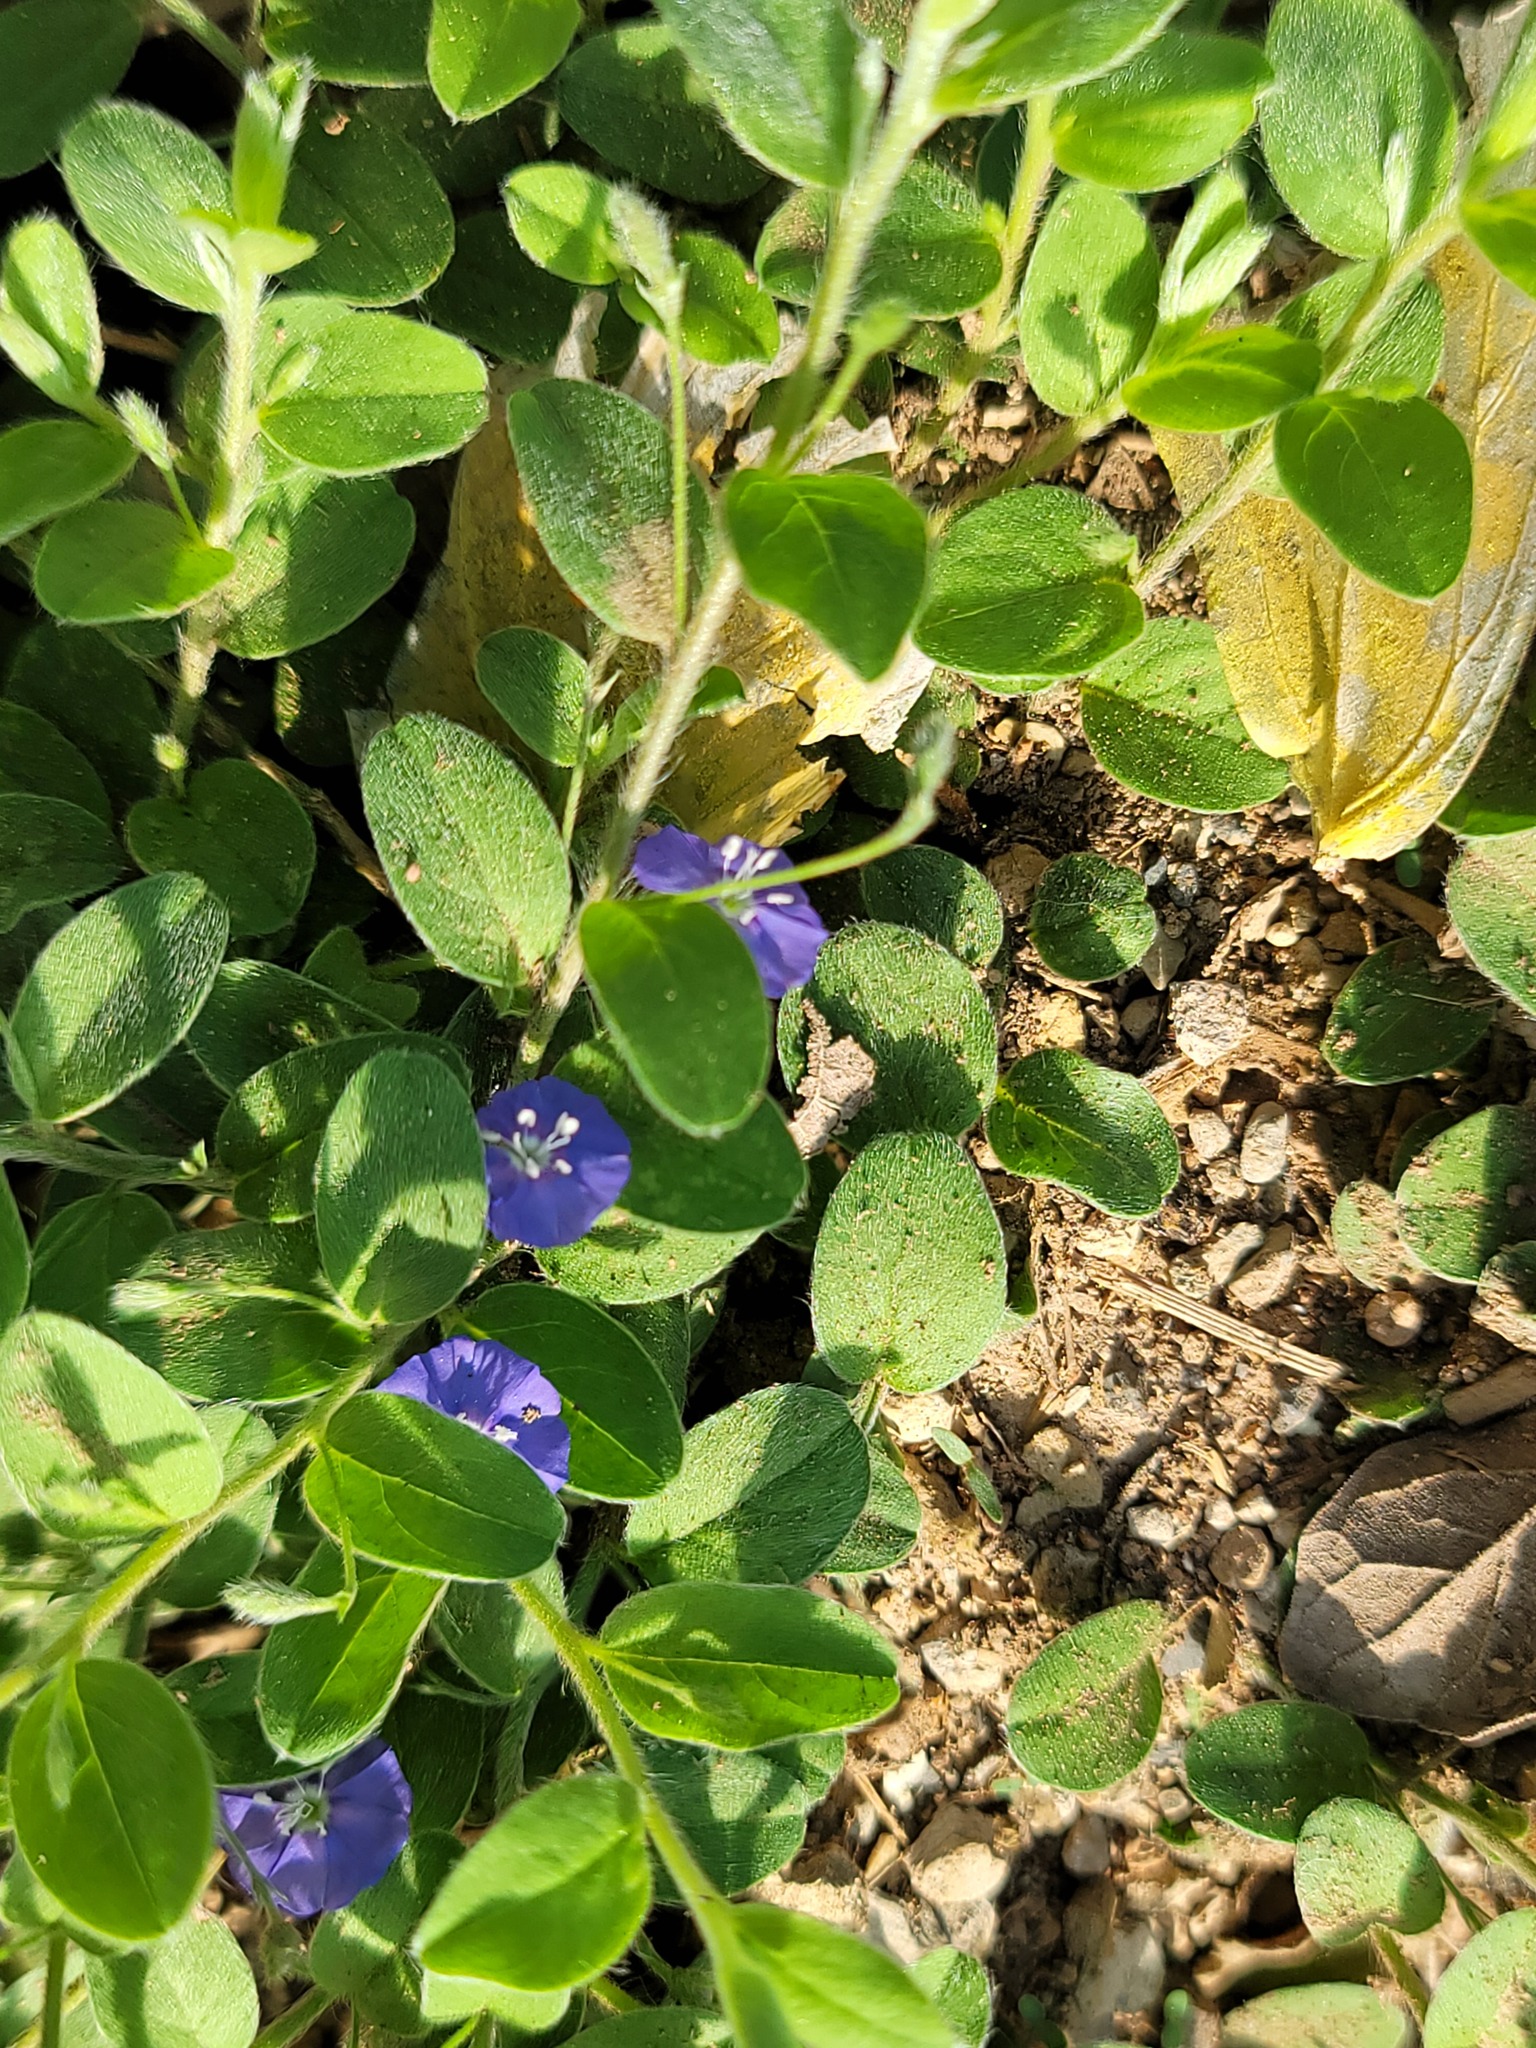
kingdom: Plantae
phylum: Tracheophyta
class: Magnoliopsida
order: Solanales
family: Convolvulaceae
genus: Evolvulus
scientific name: Evolvulus alsinoides
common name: Slender dwarf morning-glory
